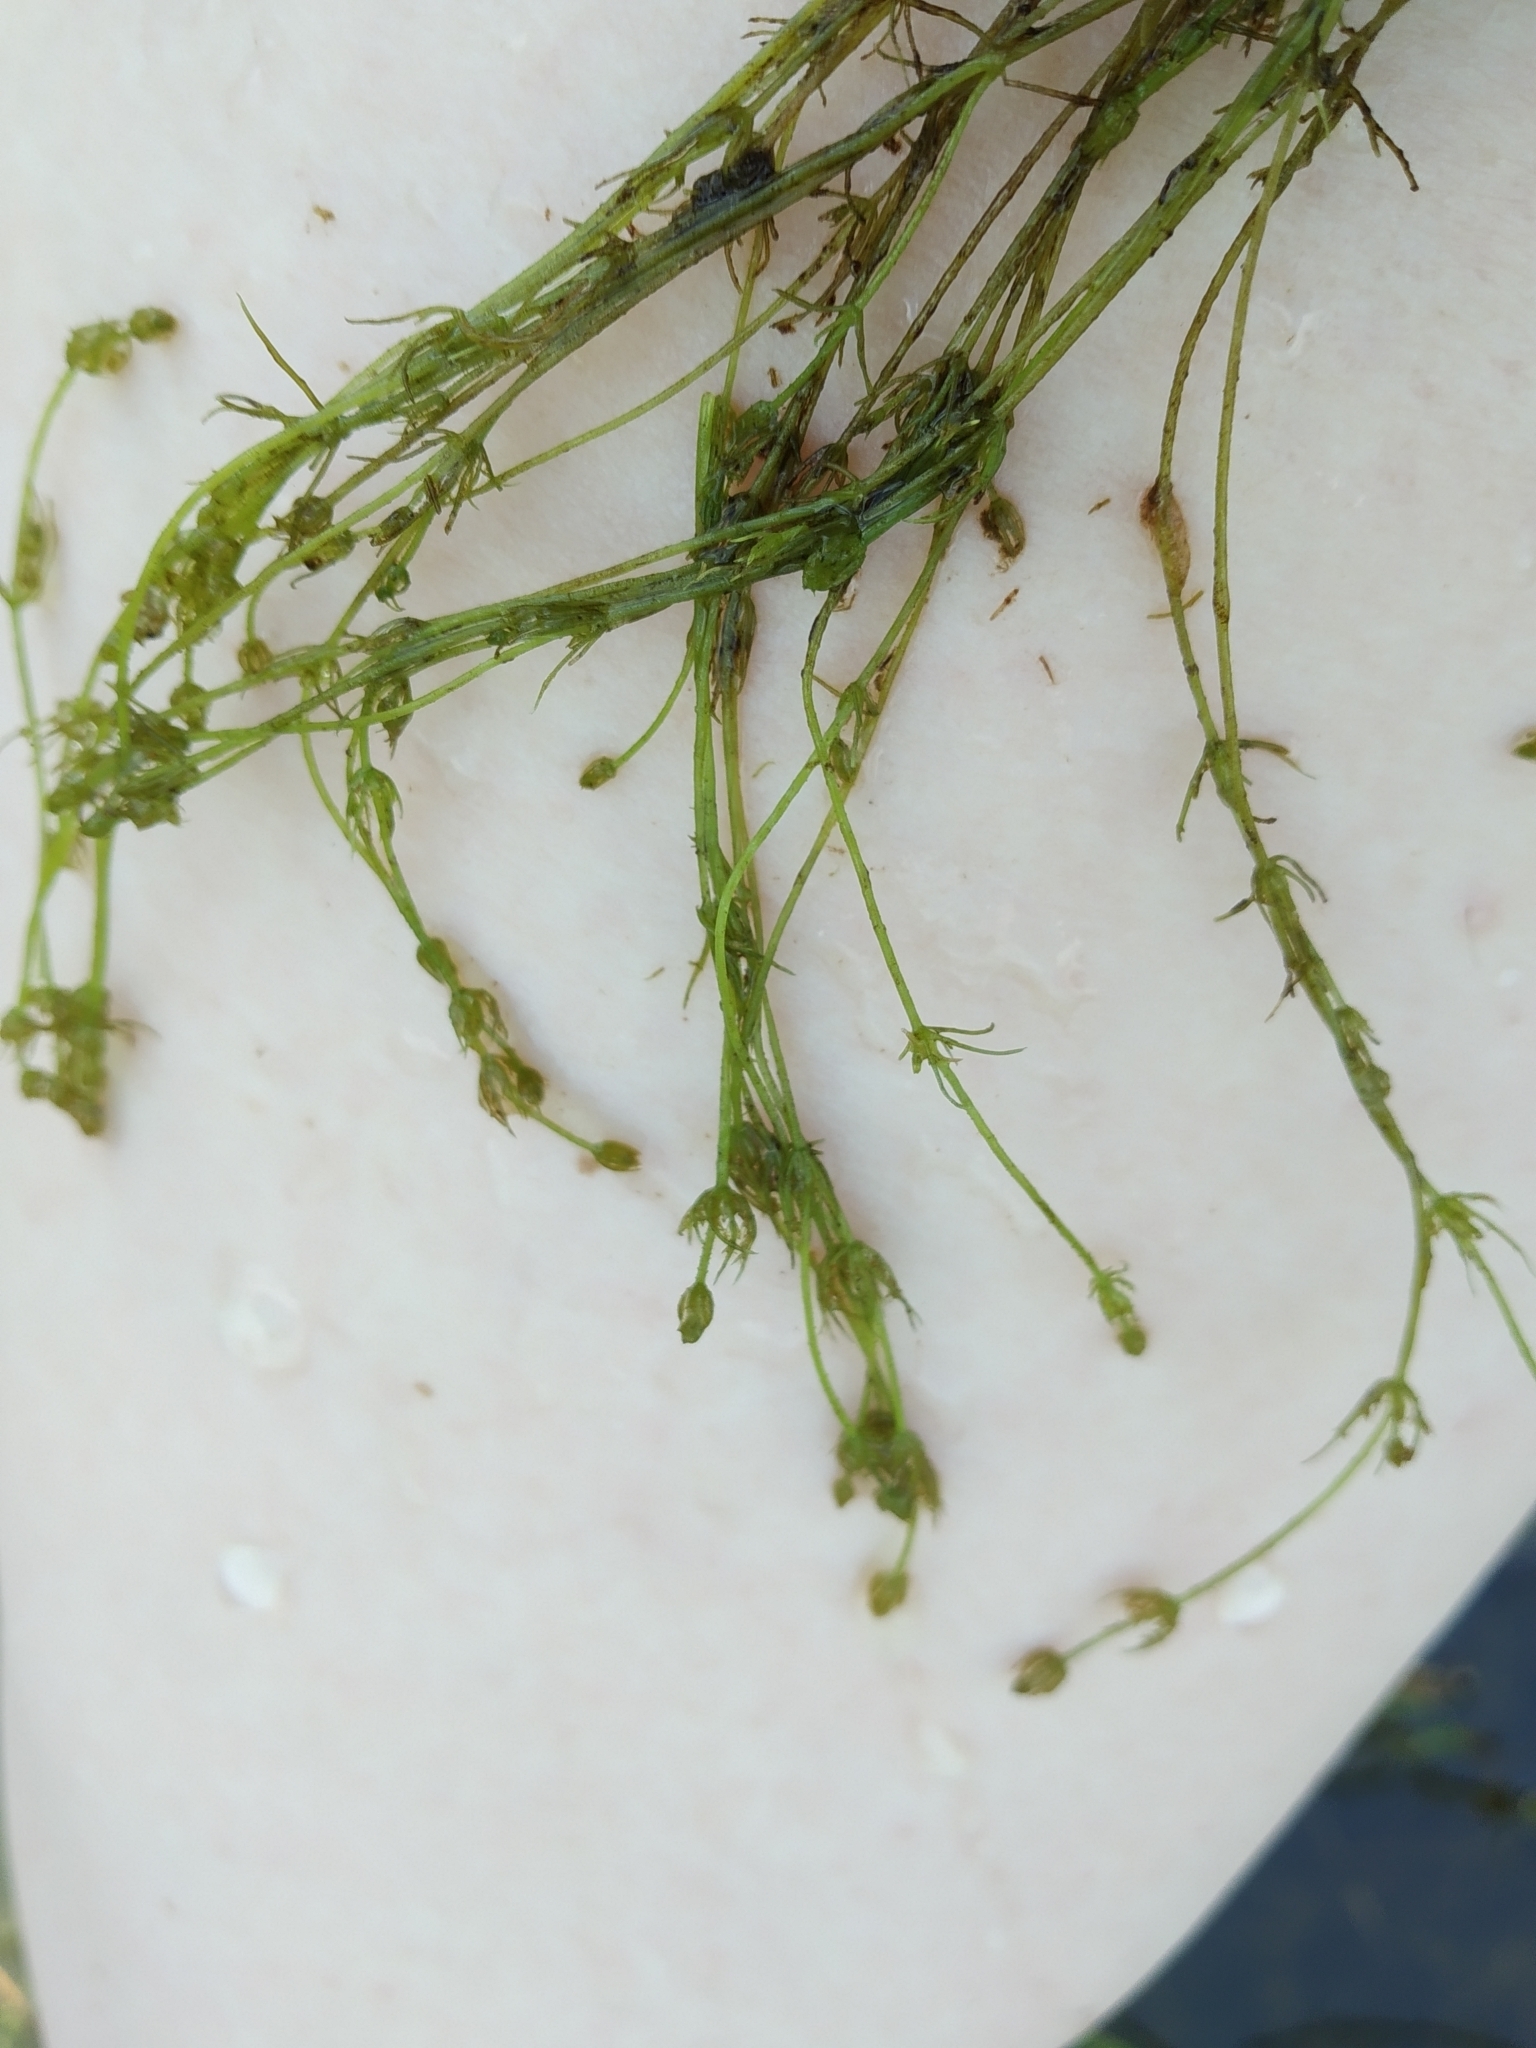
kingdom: Plantae
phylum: Charophyta
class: Charophyceae
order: Charales
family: Characeae
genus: Chara
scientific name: Chara contraria
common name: Opposite stonewort
